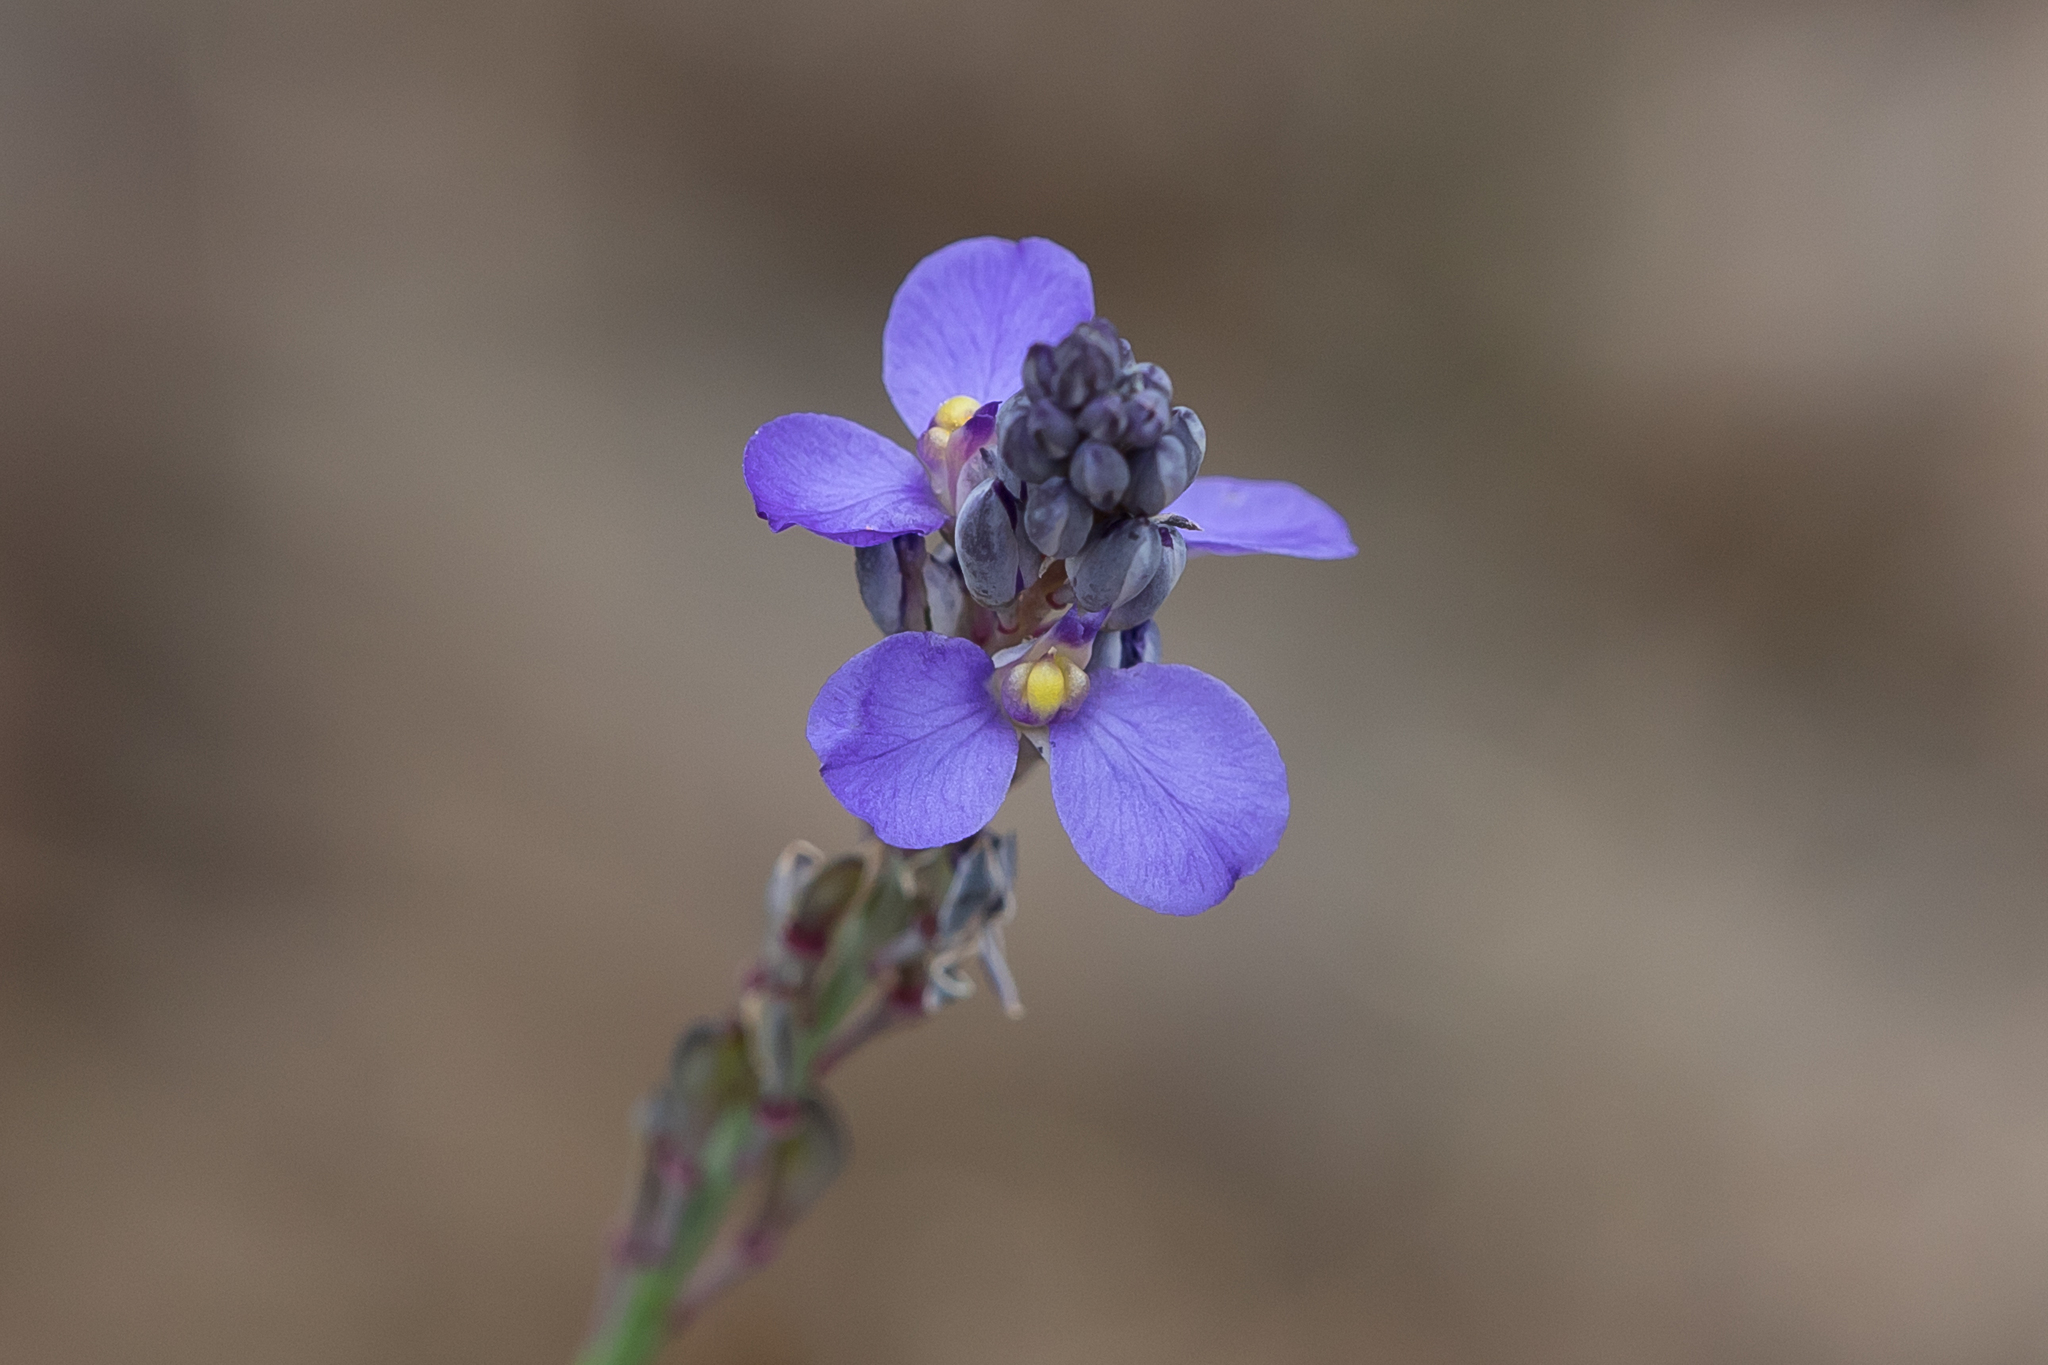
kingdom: Plantae
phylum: Tracheophyta
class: Magnoliopsida
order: Fabales
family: Polygalaceae
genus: Comesperma
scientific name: Comesperma calymega
